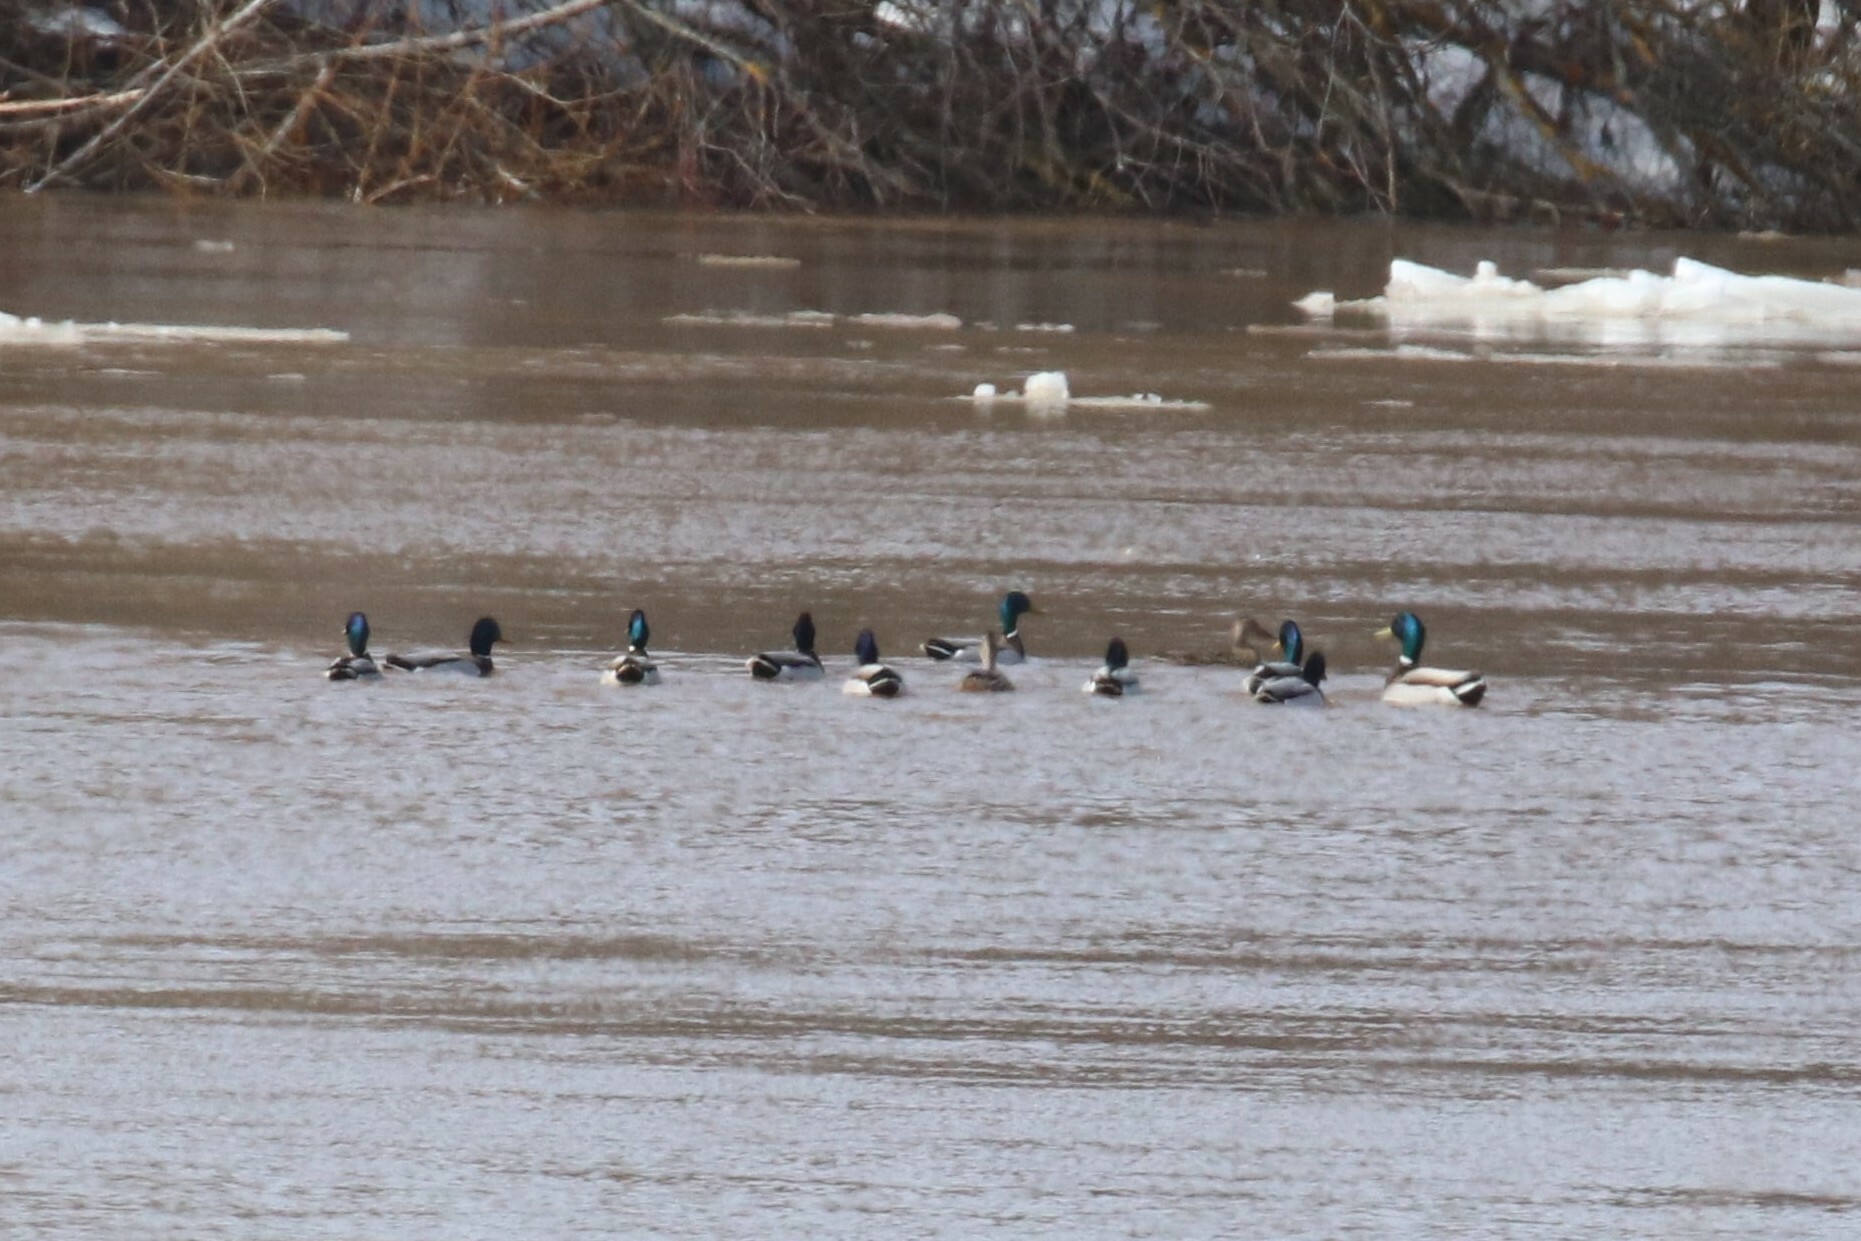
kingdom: Animalia
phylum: Chordata
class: Aves
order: Anseriformes
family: Anatidae
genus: Anas
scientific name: Anas platyrhynchos
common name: Mallard
